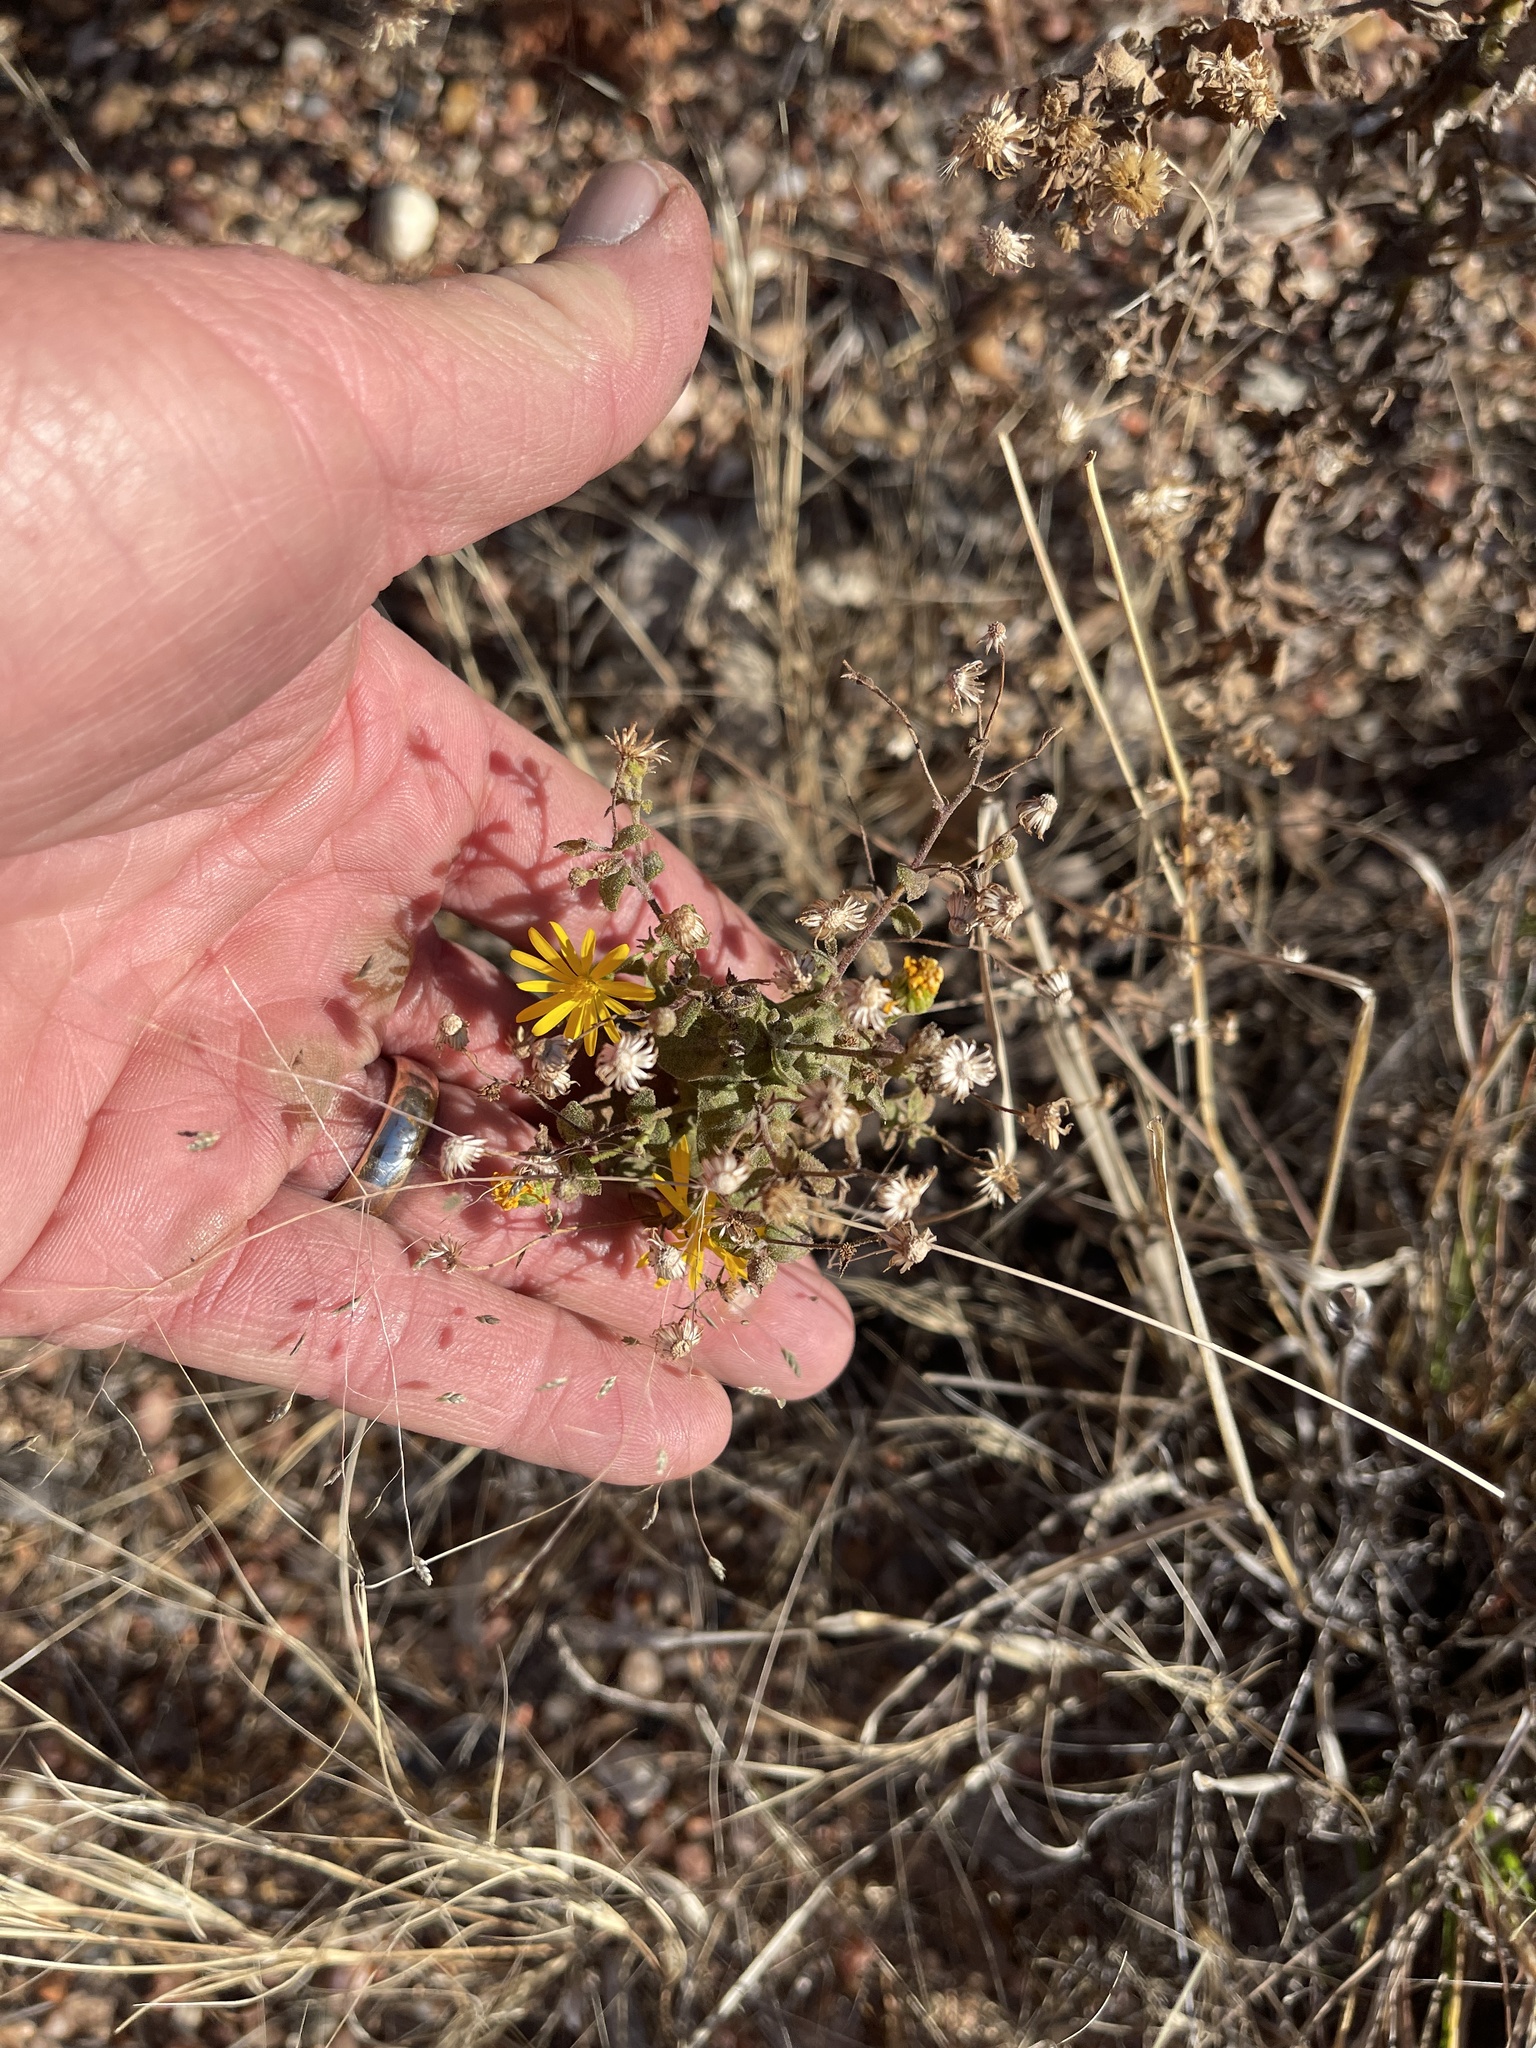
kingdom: Plantae
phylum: Tracheophyta
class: Magnoliopsida
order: Asterales
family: Asteraceae
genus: Heterotheca
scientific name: Heterotheca subaxillaris
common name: Camphorweed
